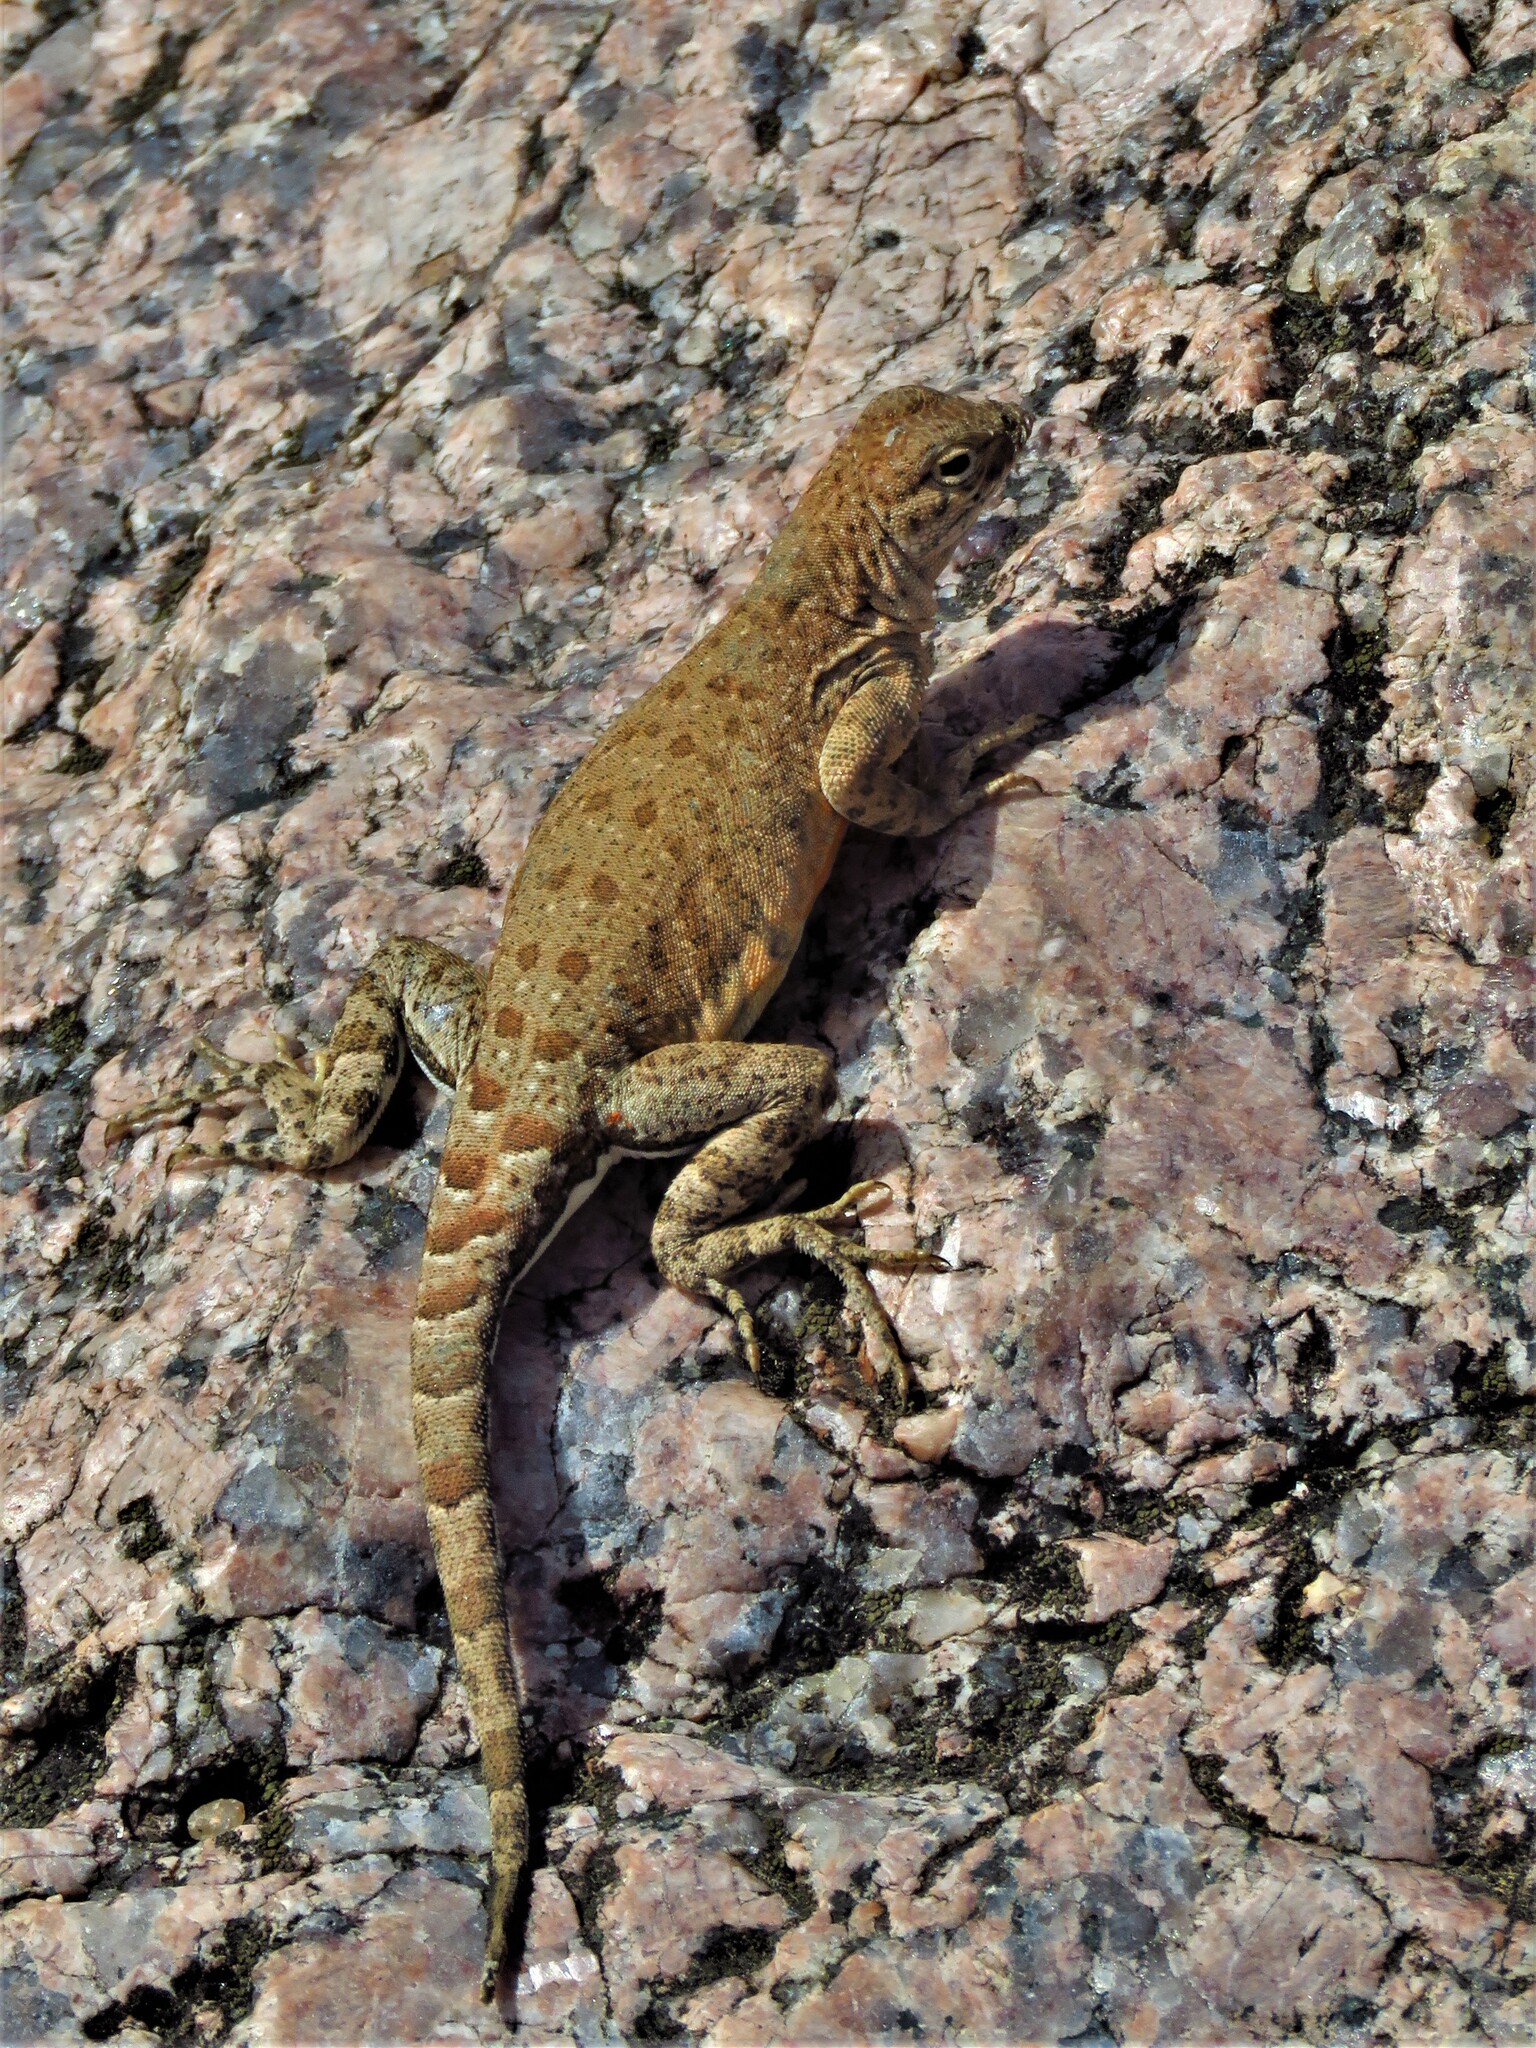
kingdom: Animalia
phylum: Chordata
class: Squamata
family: Phrynosomatidae
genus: Cophosaurus
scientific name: Cophosaurus texanus
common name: Greater earless lizard
